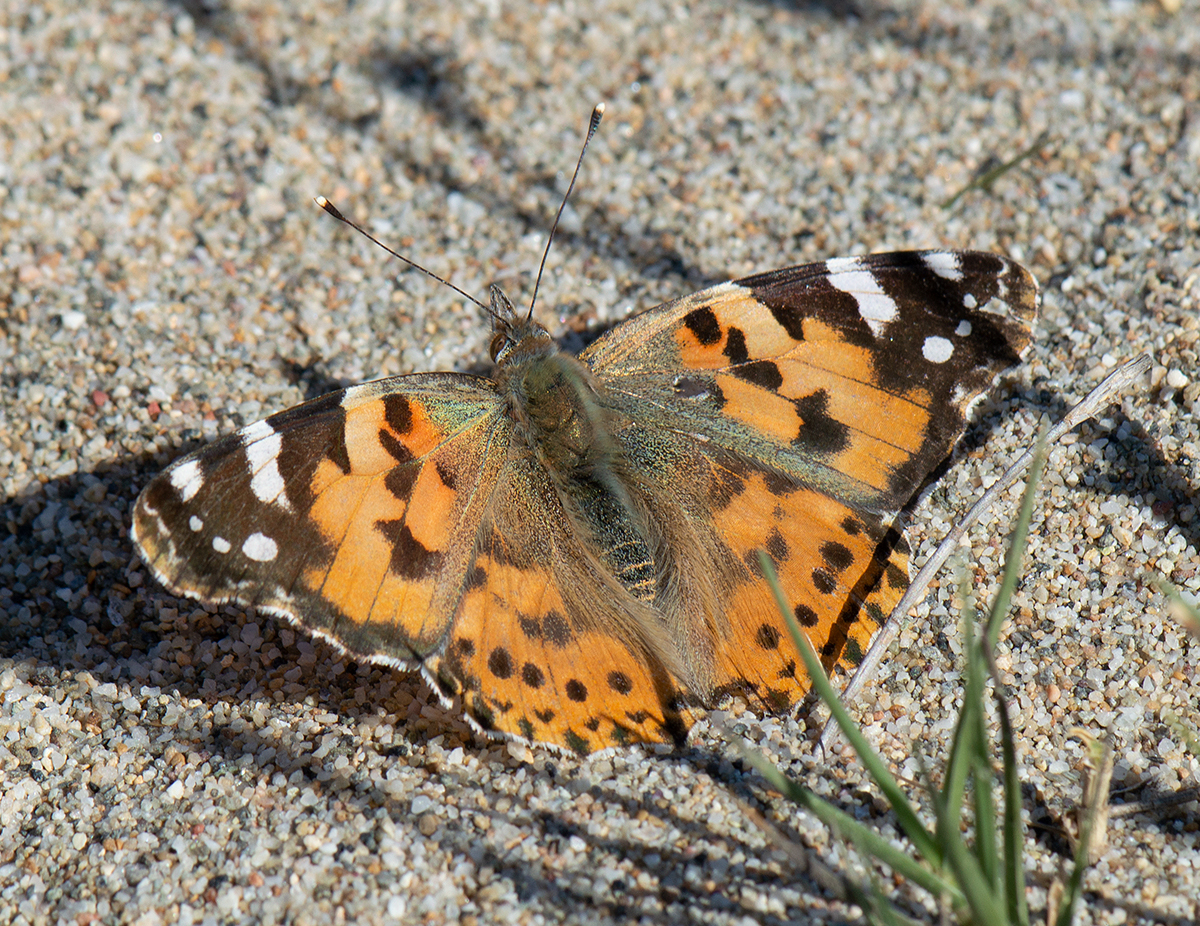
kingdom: Animalia
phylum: Arthropoda
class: Insecta
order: Lepidoptera
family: Nymphalidae
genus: Vanessa
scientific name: Vanessa cardui
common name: Painted lady
